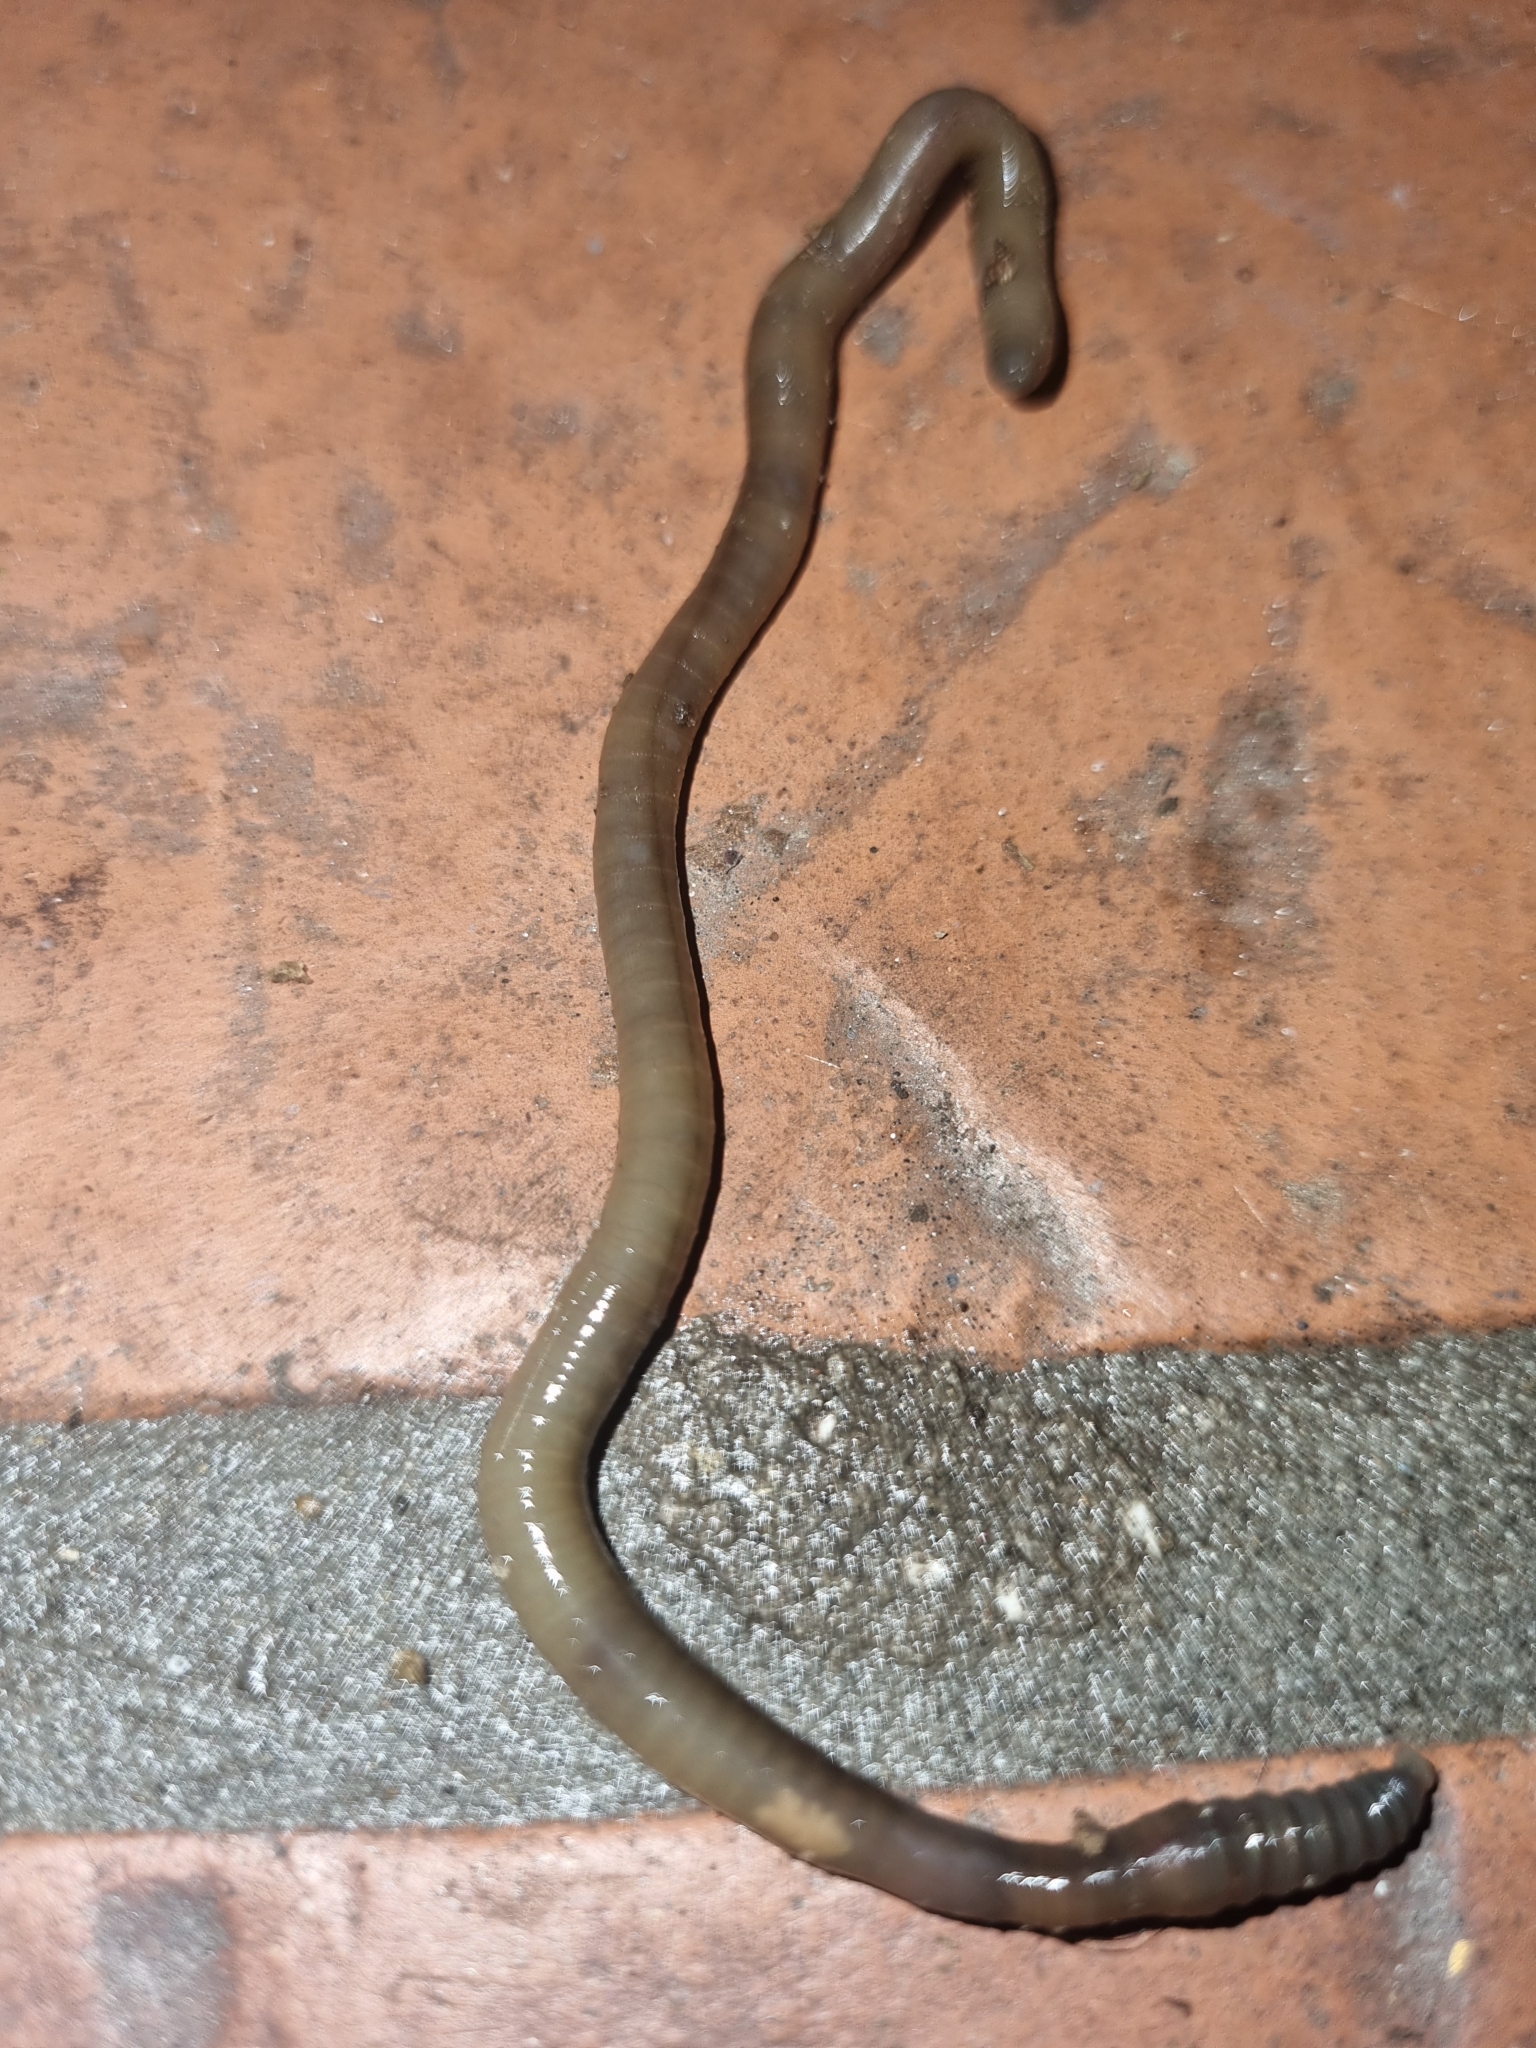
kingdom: Animalia
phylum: Annelida
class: Clitellata
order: Crassiclitellata
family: Lumbricidae
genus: Lumbricus
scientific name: Lumbricus terrestris
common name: Common earthworm
